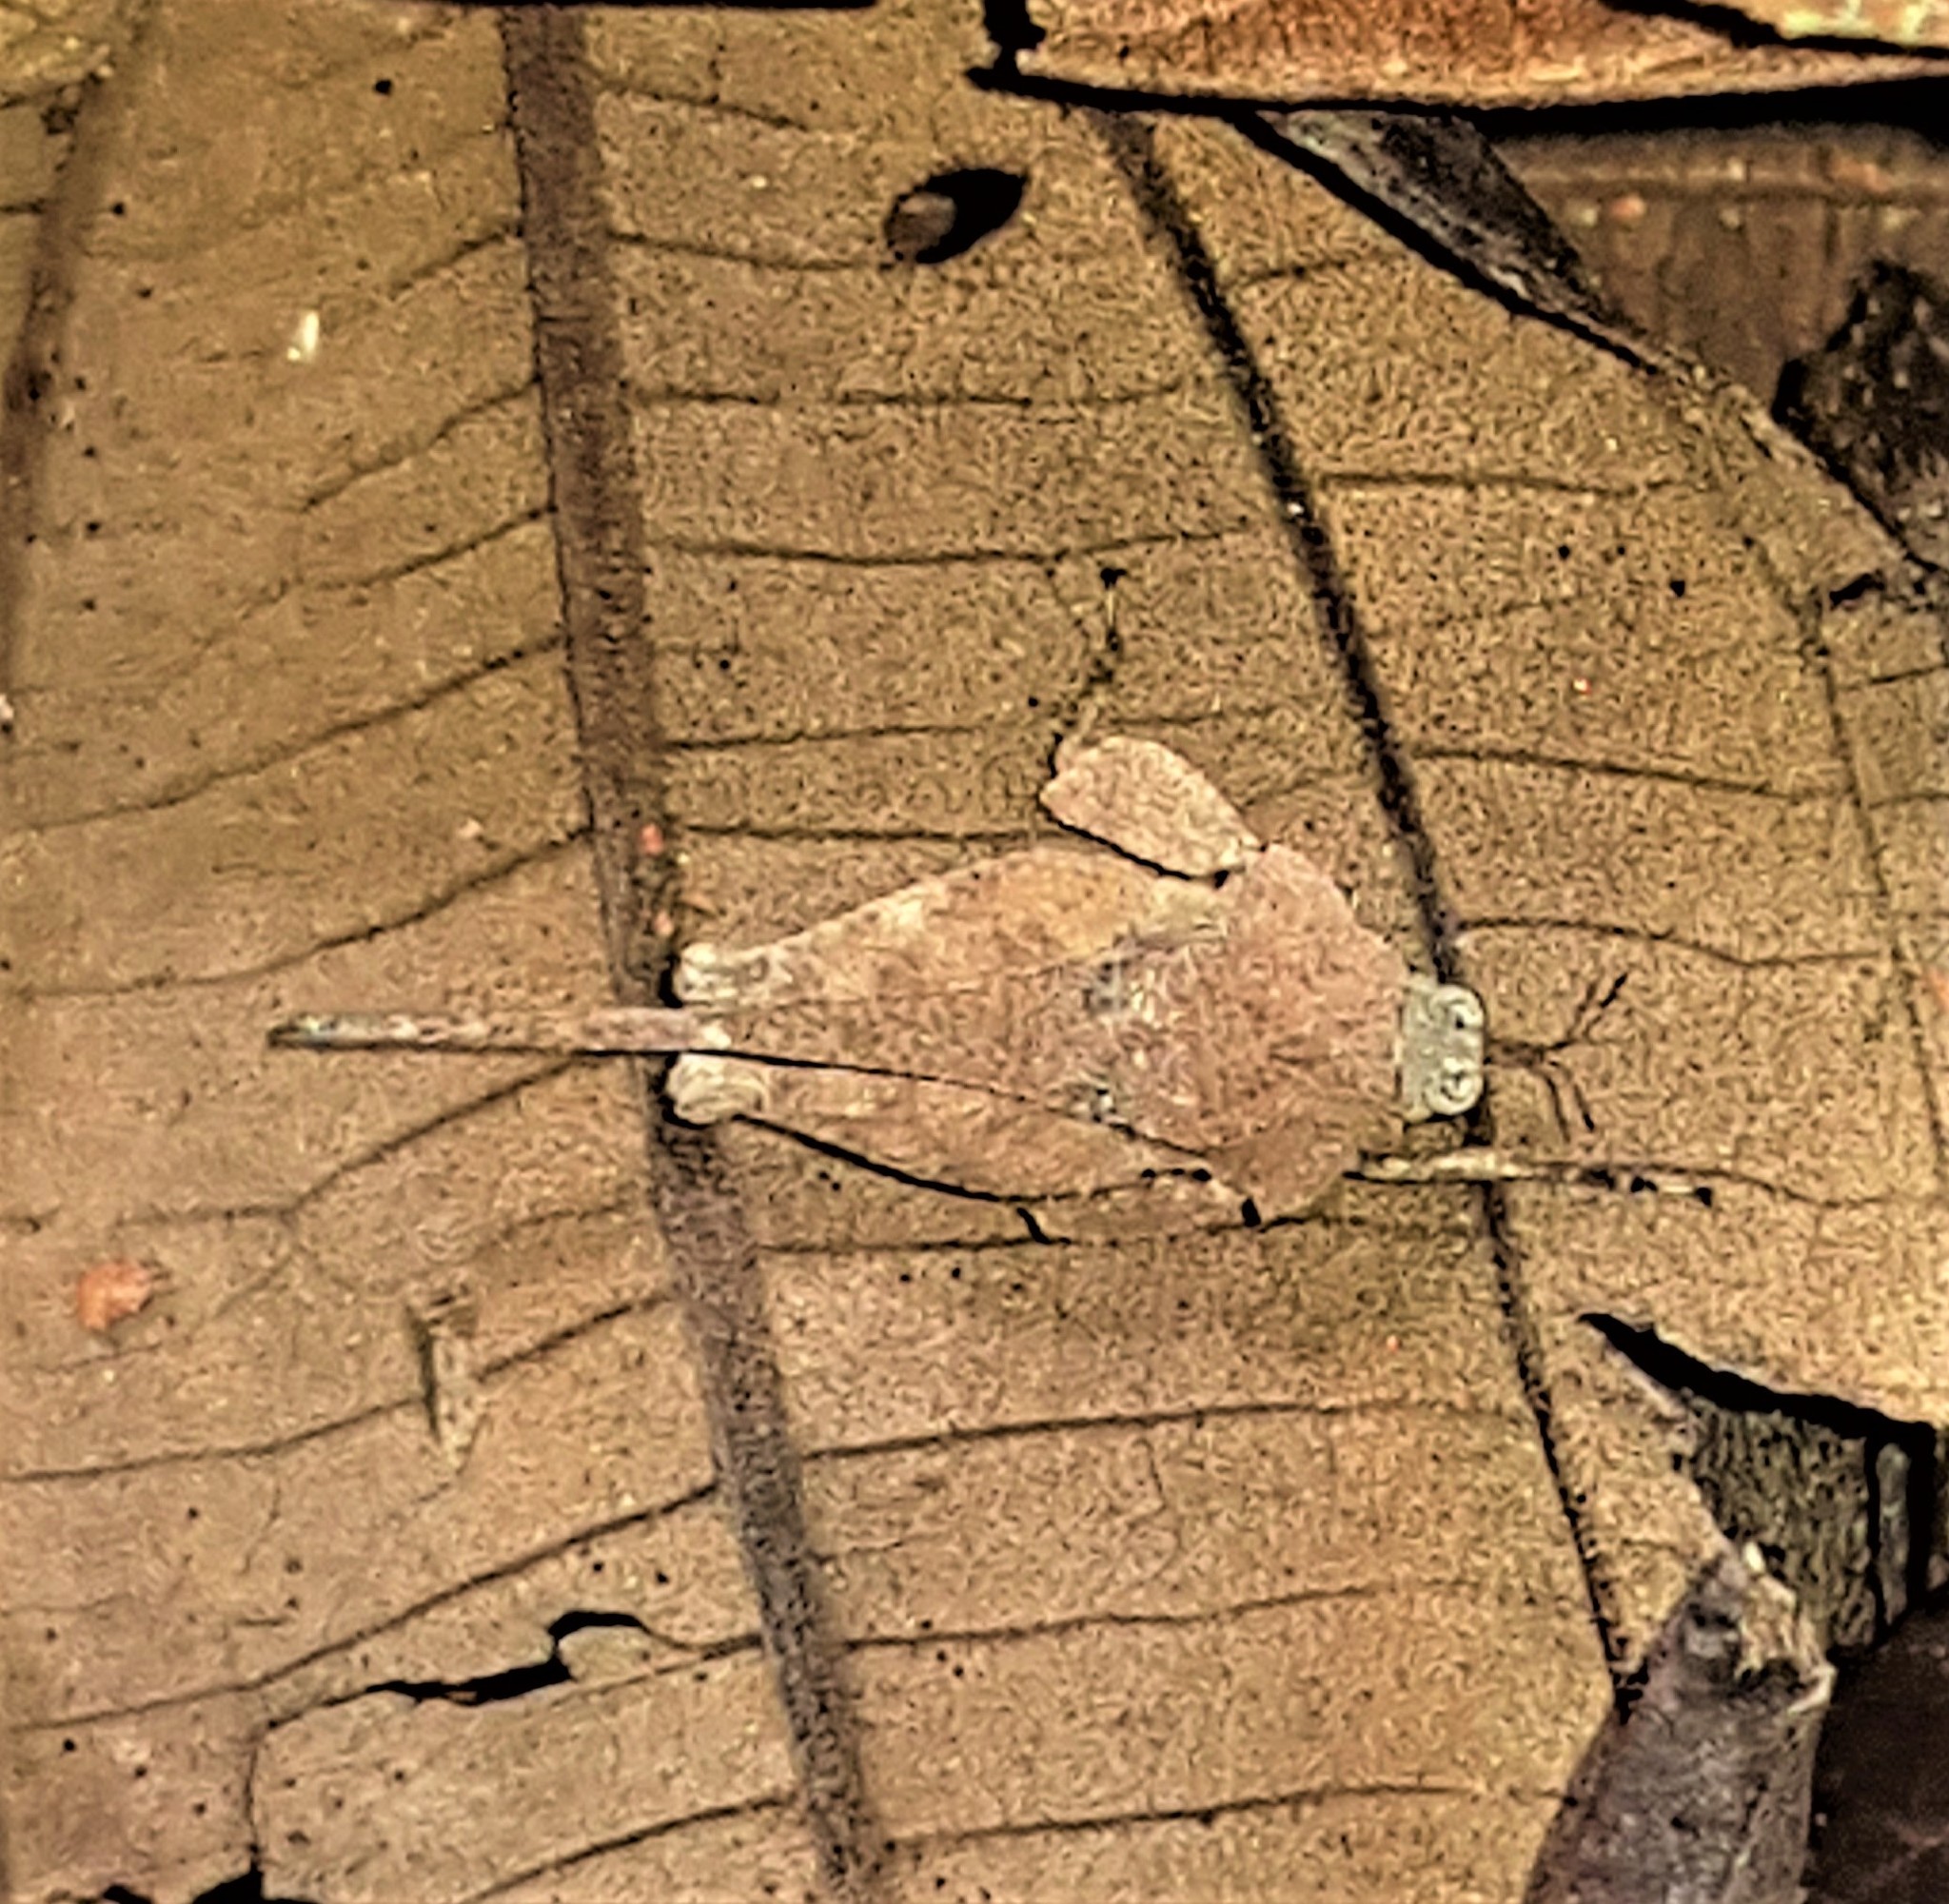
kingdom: Animalia
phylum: Arthropoda
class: Insecta
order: Orthoptera
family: Tetrigidae
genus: Eomorphopus
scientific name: Eomorphopus granulatus
